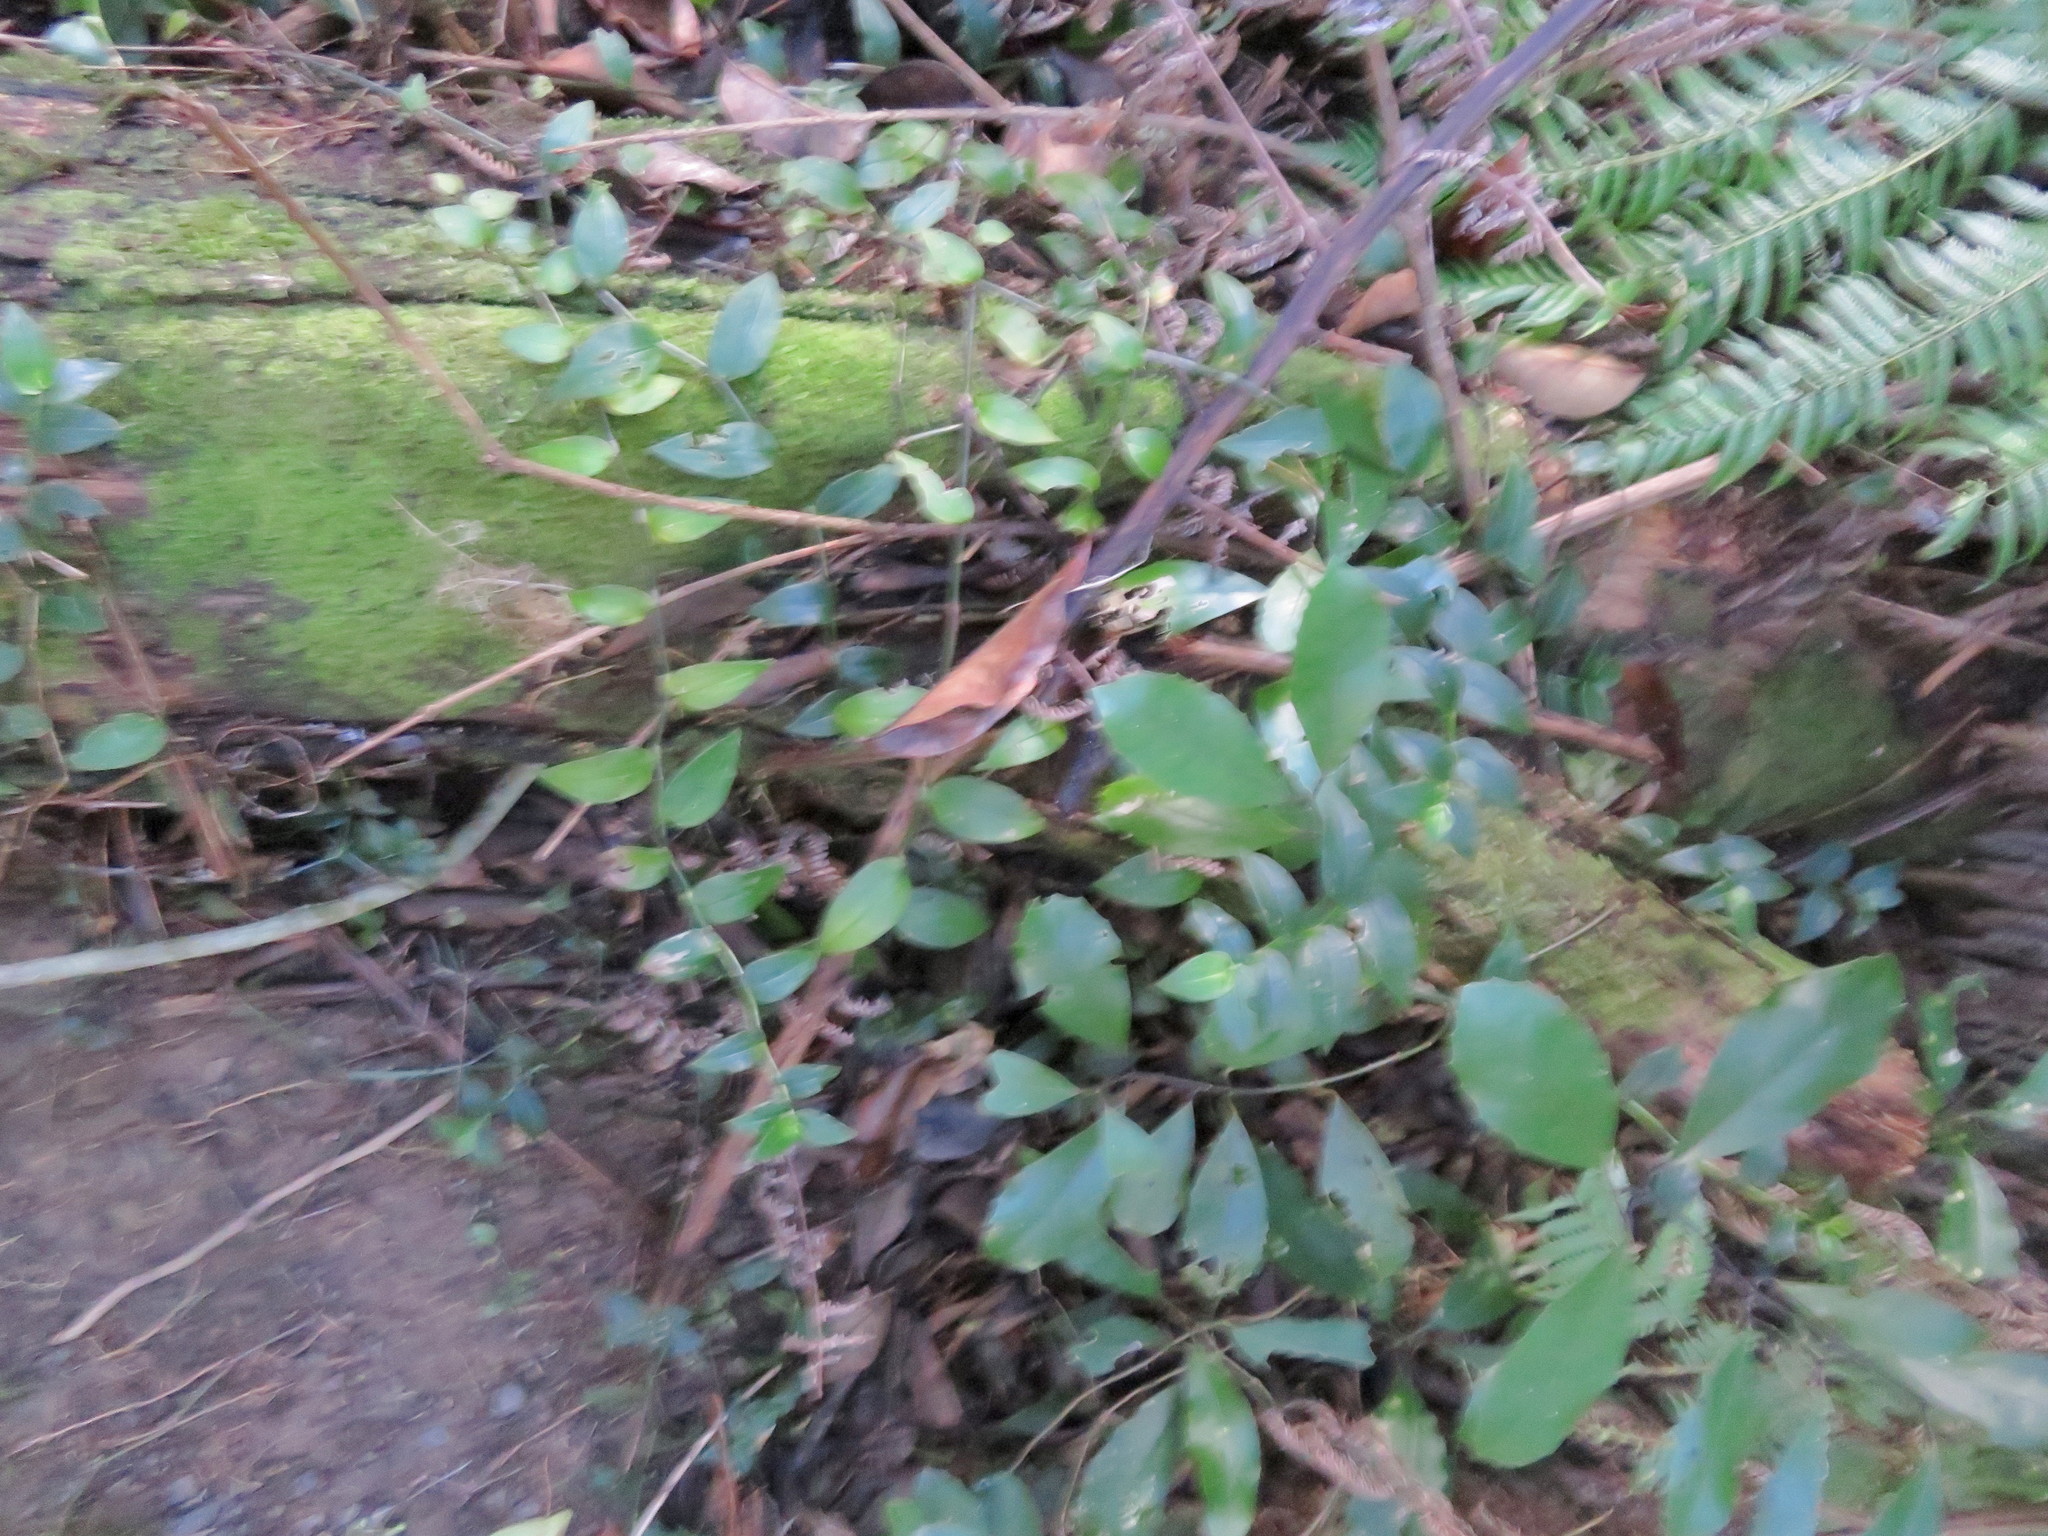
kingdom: Plantae
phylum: Tracheophyta
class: Magnoliopsida
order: Laurales
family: Monimiaceae
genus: Hedycarya
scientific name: Hedycarya arborea
